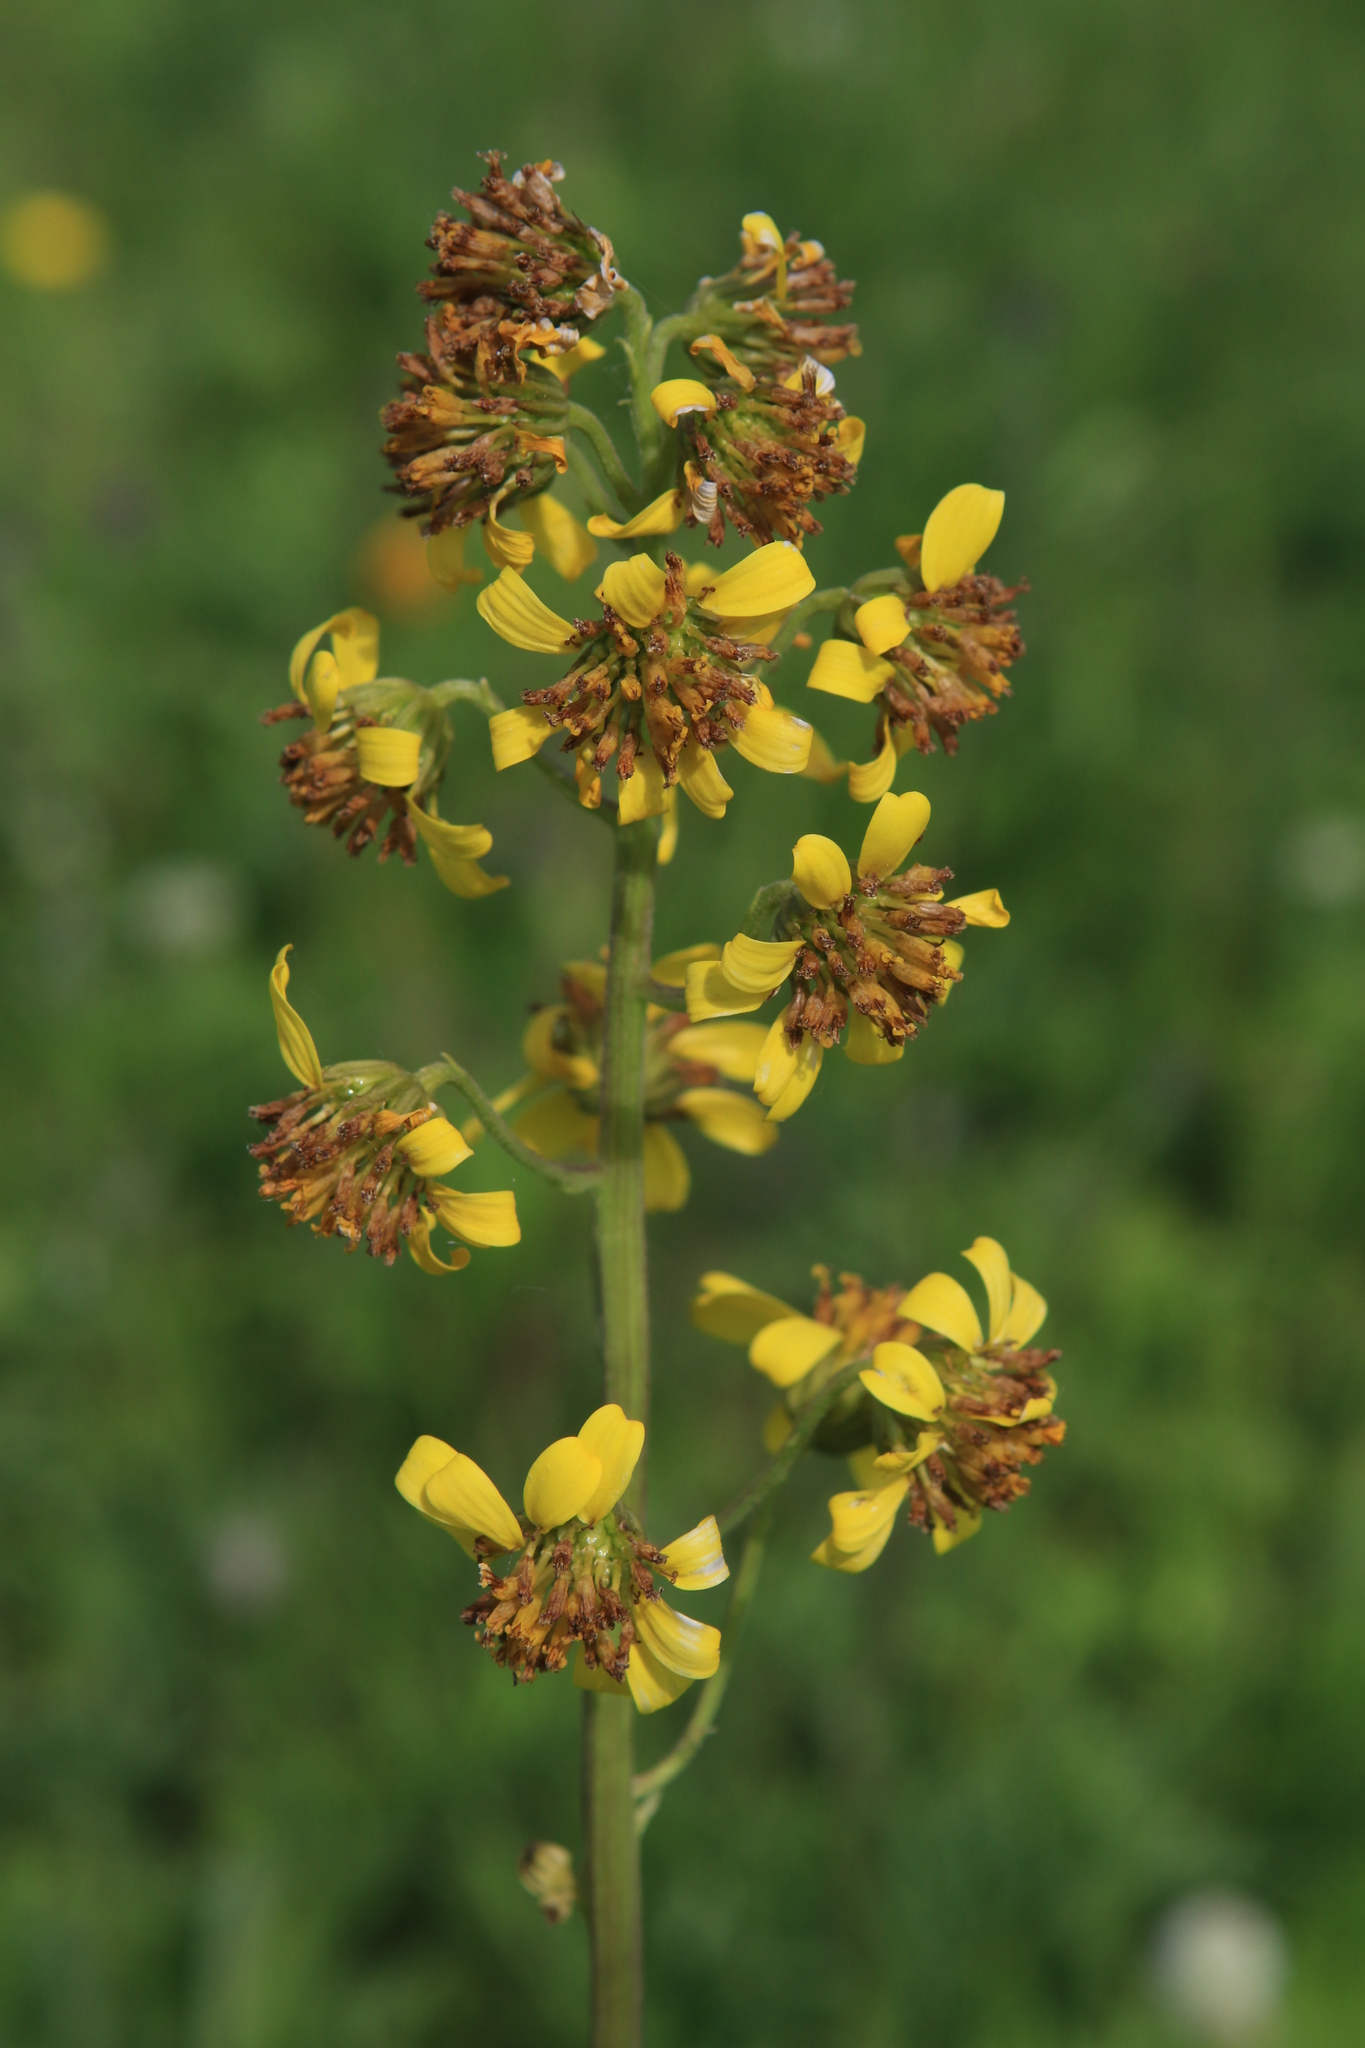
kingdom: Plantae
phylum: Tracheophyta
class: Magnoliopsida
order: Asterales
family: Asteraceae
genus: Ligularia
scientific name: Ligularia glauca
